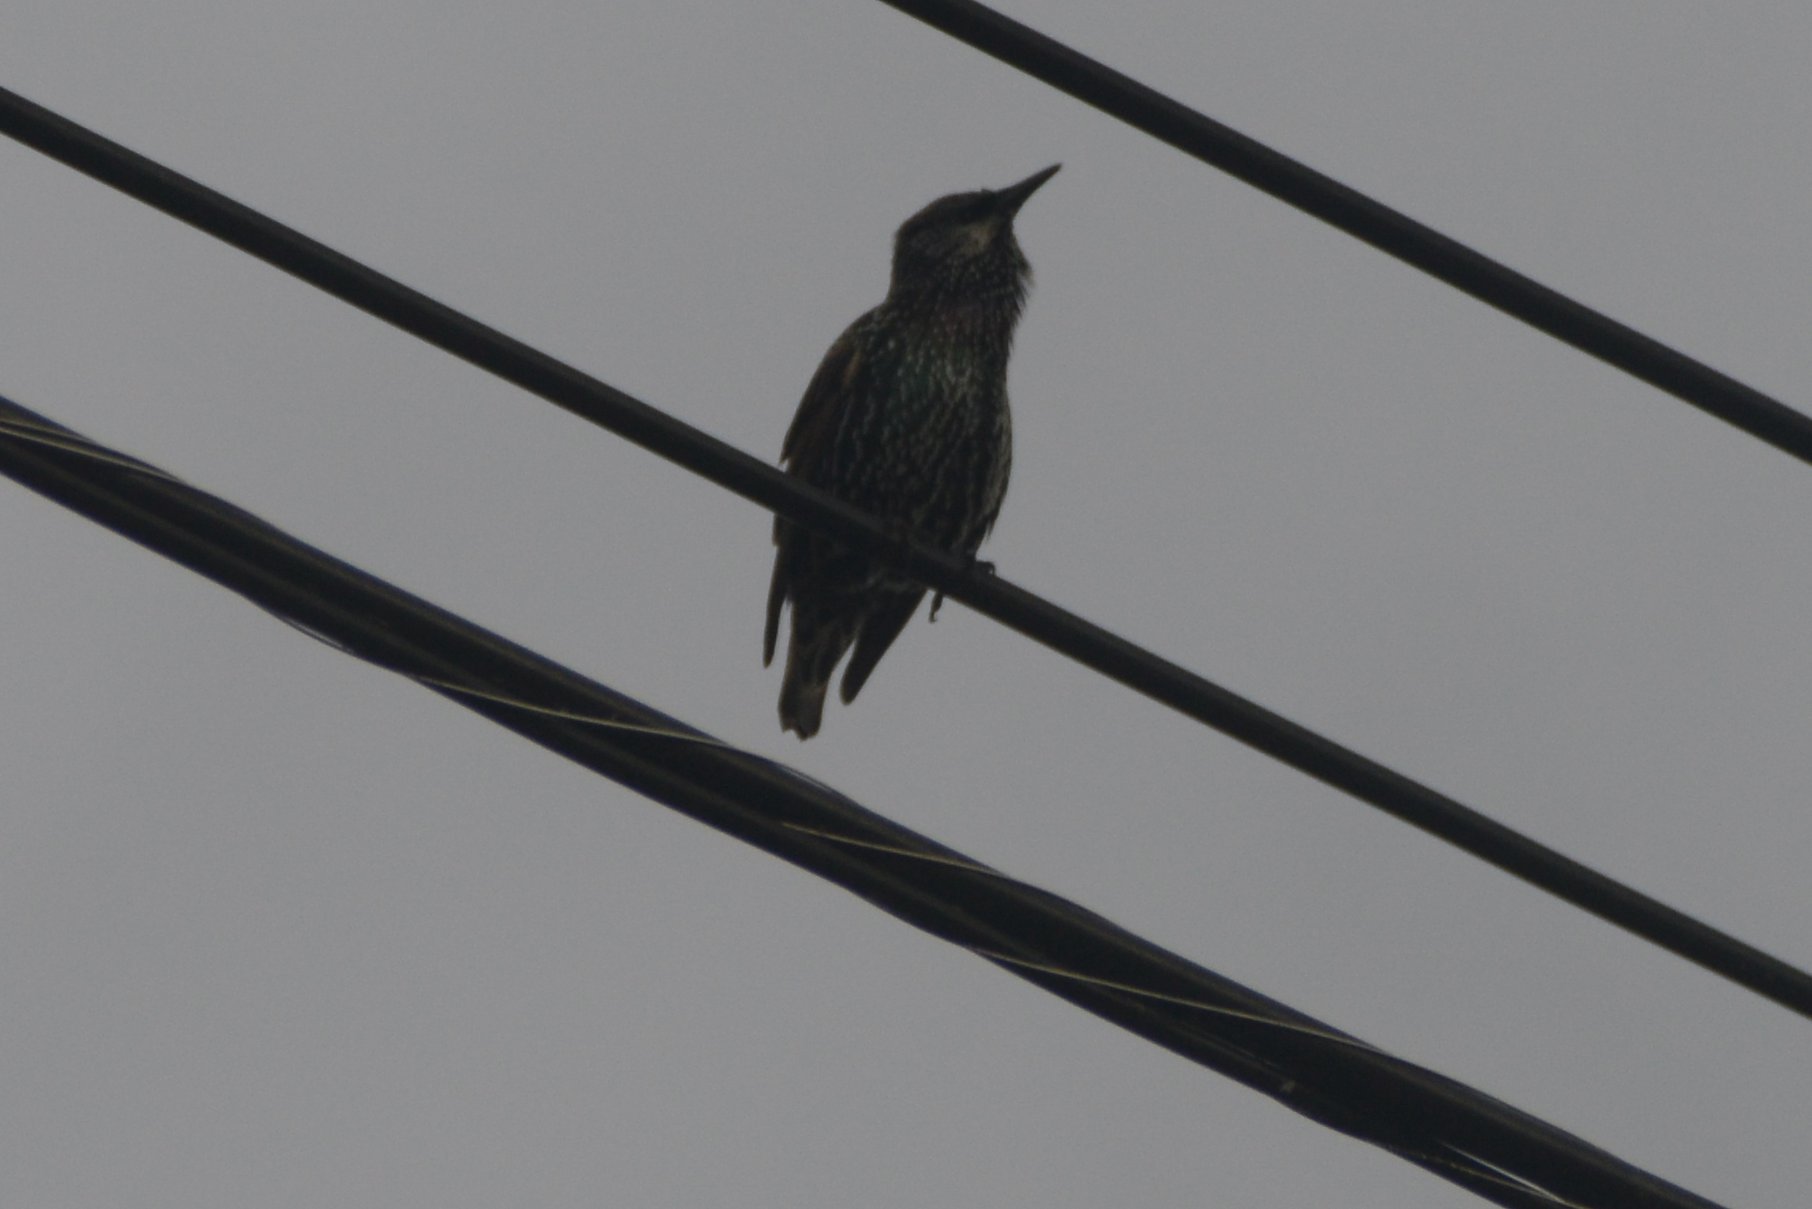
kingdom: Animalia
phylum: Chordata
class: Aves
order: Passeriformes
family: Sturnidae
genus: Sturnus
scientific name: Sturnus vulgaris
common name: Common starling
